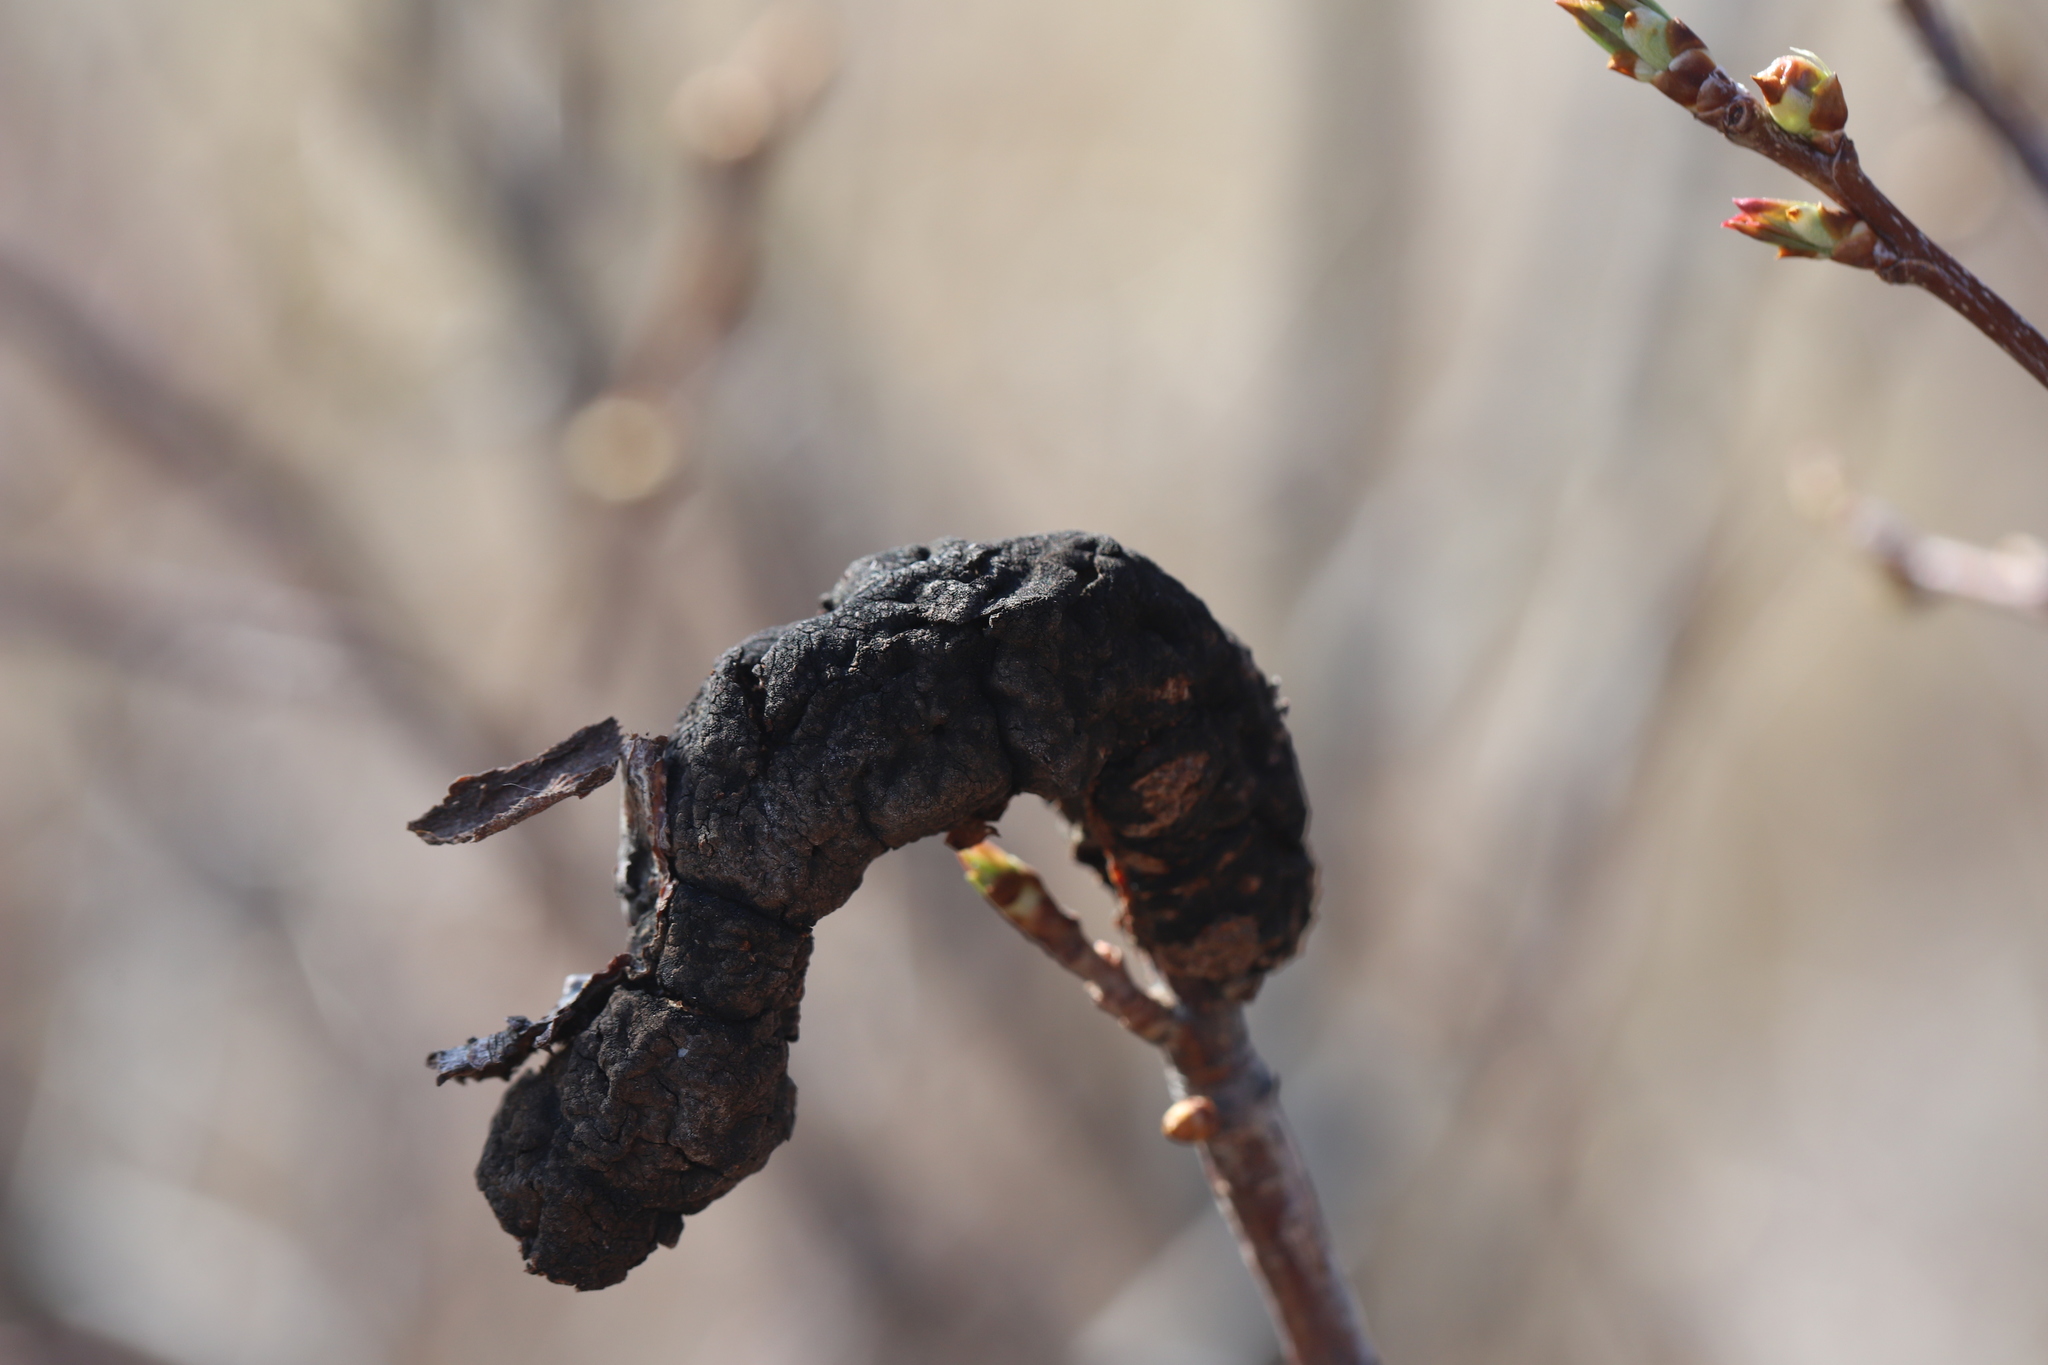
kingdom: Fungi
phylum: Ascomycota
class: Dothideomycetes
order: Venturiales
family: Venturiaceae
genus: Apiosporina
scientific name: Apiosporina morbosa
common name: Black knot
